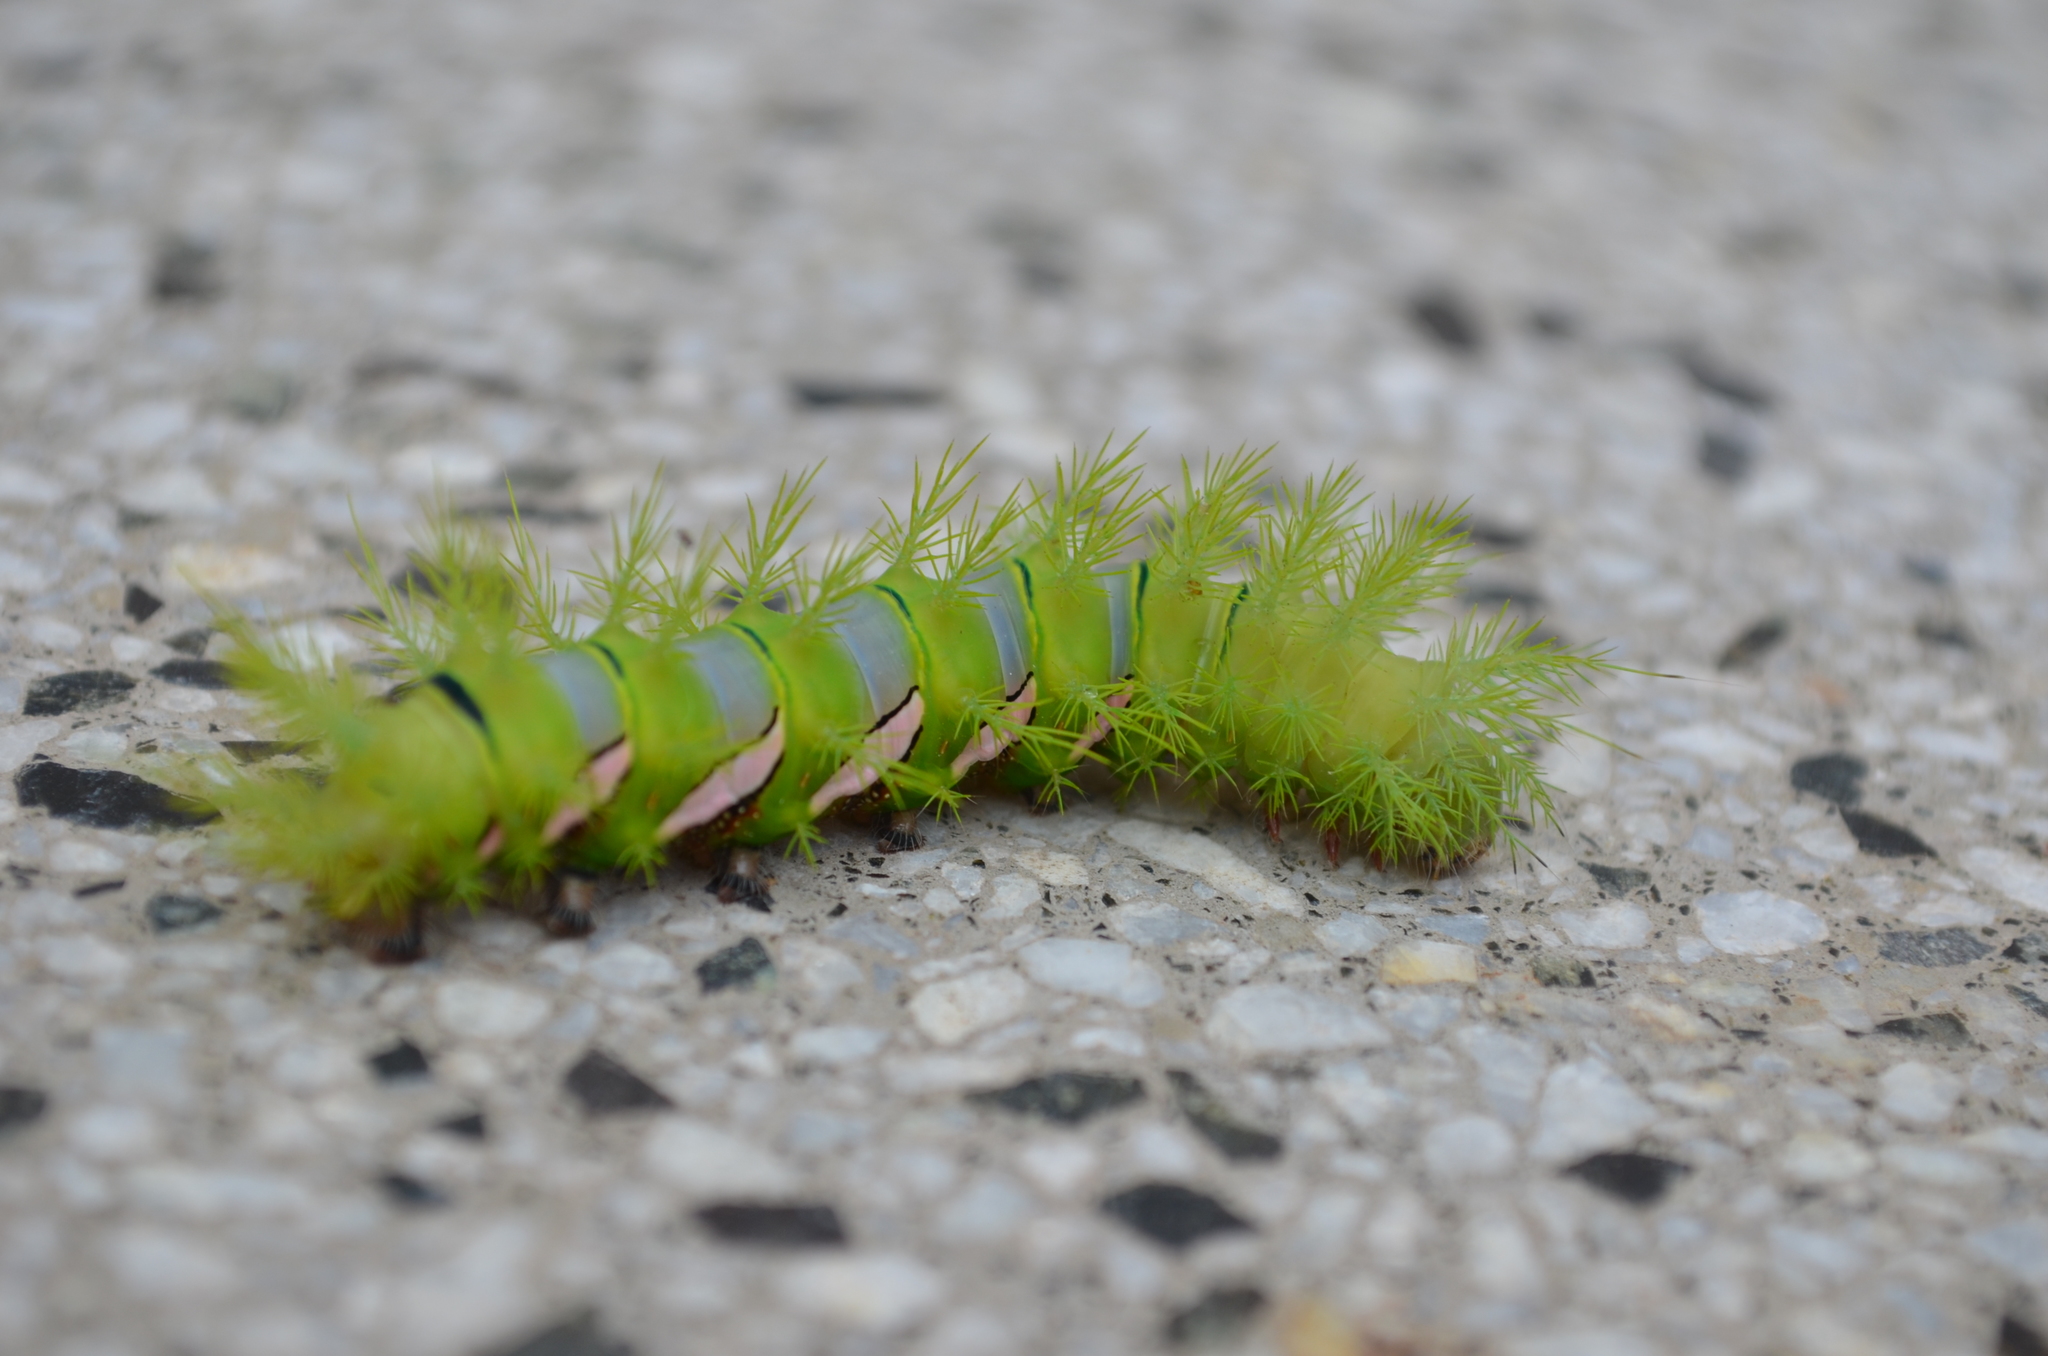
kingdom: Animalia
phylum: Arthropoda
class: Insecta
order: Lepidoptera
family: Saturniidae
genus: Automeris
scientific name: Automeris naranja
